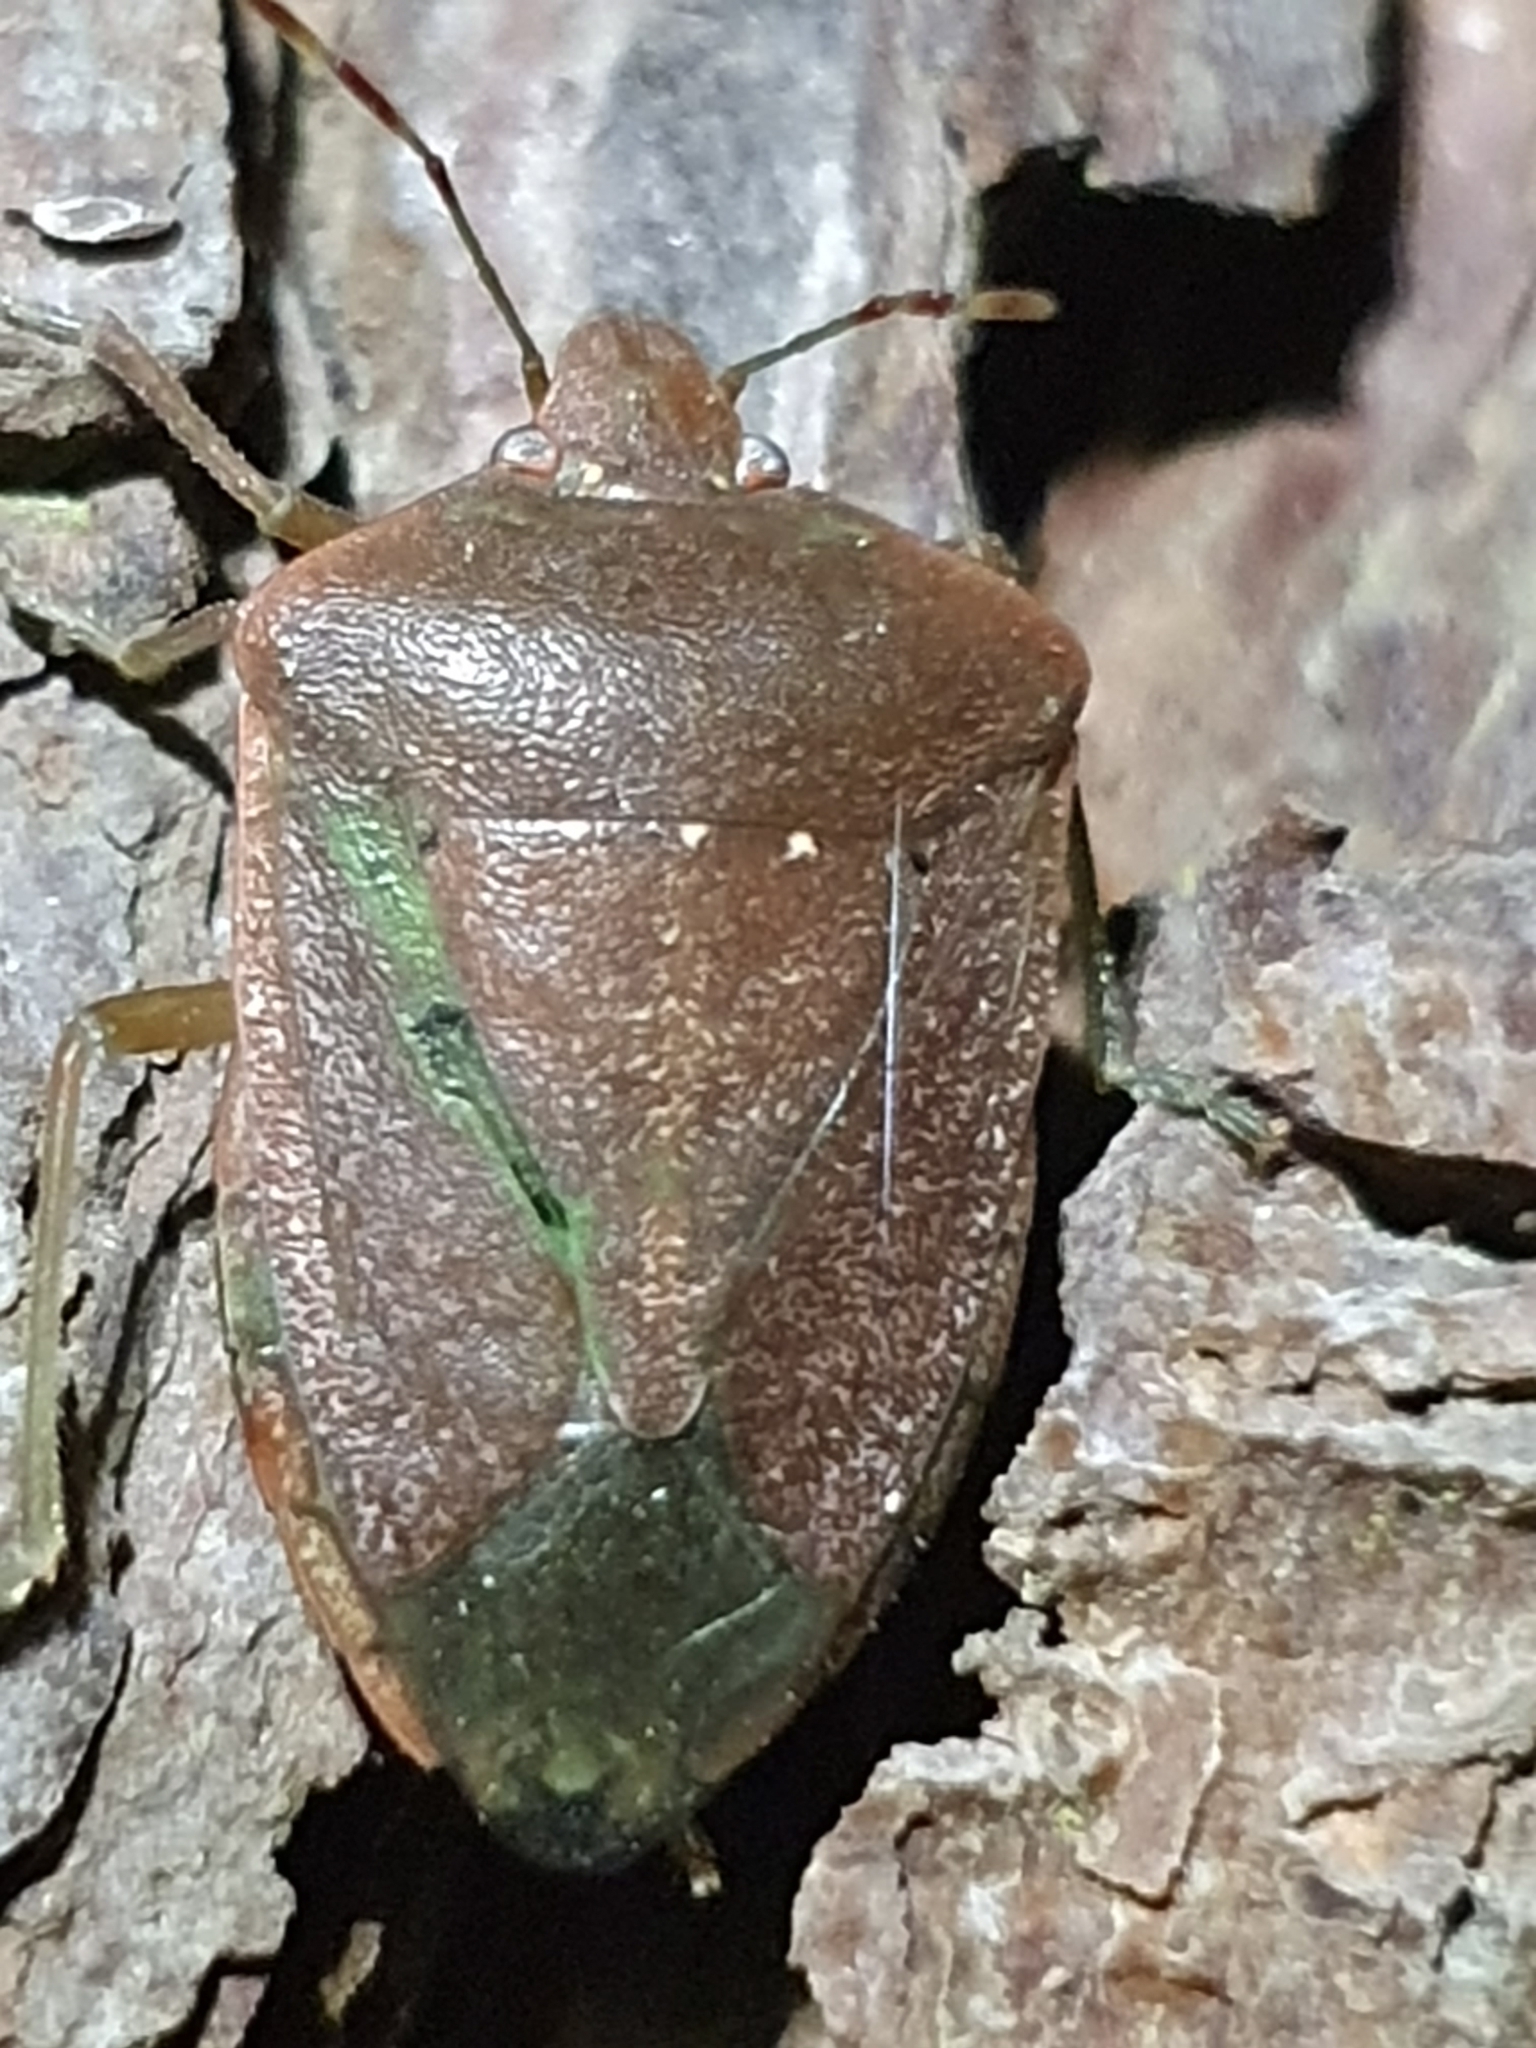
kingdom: Animalia
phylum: Arthropoda
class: Insecta
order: Hemiptera
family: Pentatomidae
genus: Nezara
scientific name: Nezara viridula
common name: Southern green stink bug
